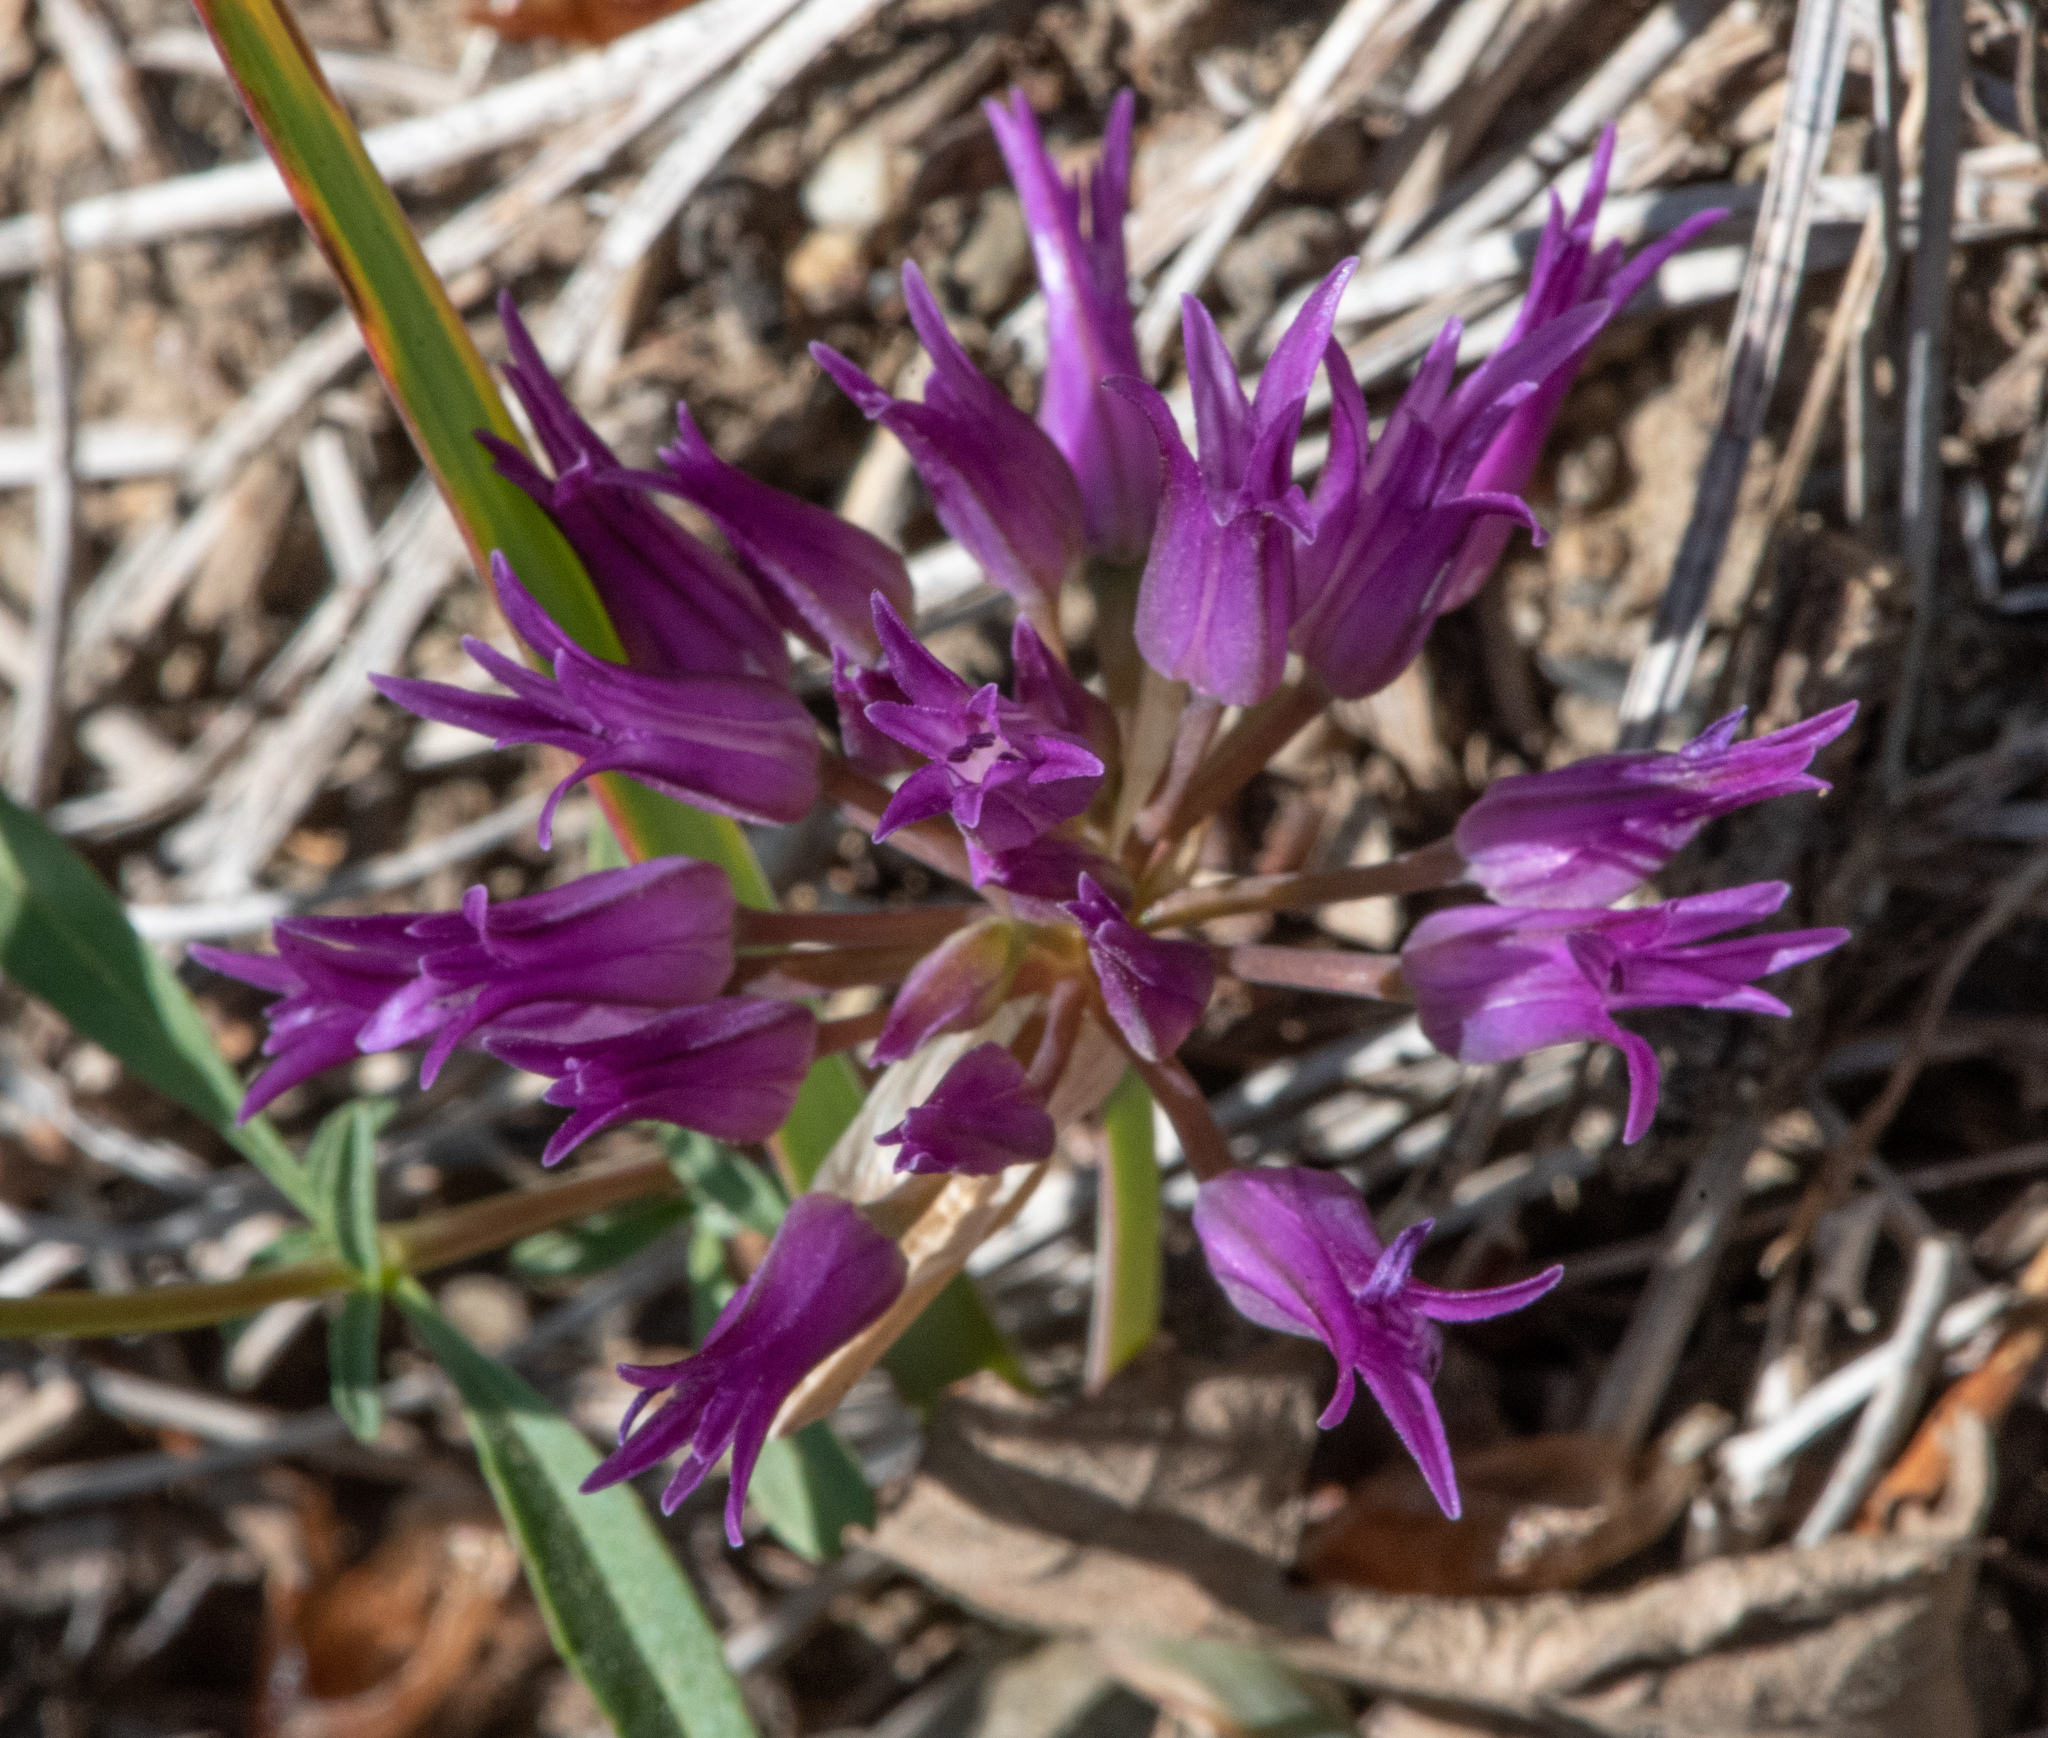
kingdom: Plantae
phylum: Tracheophyta
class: Liliopsida
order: Asparagales
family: Amaryllidaceae
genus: Allium
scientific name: Allium falcifolium
